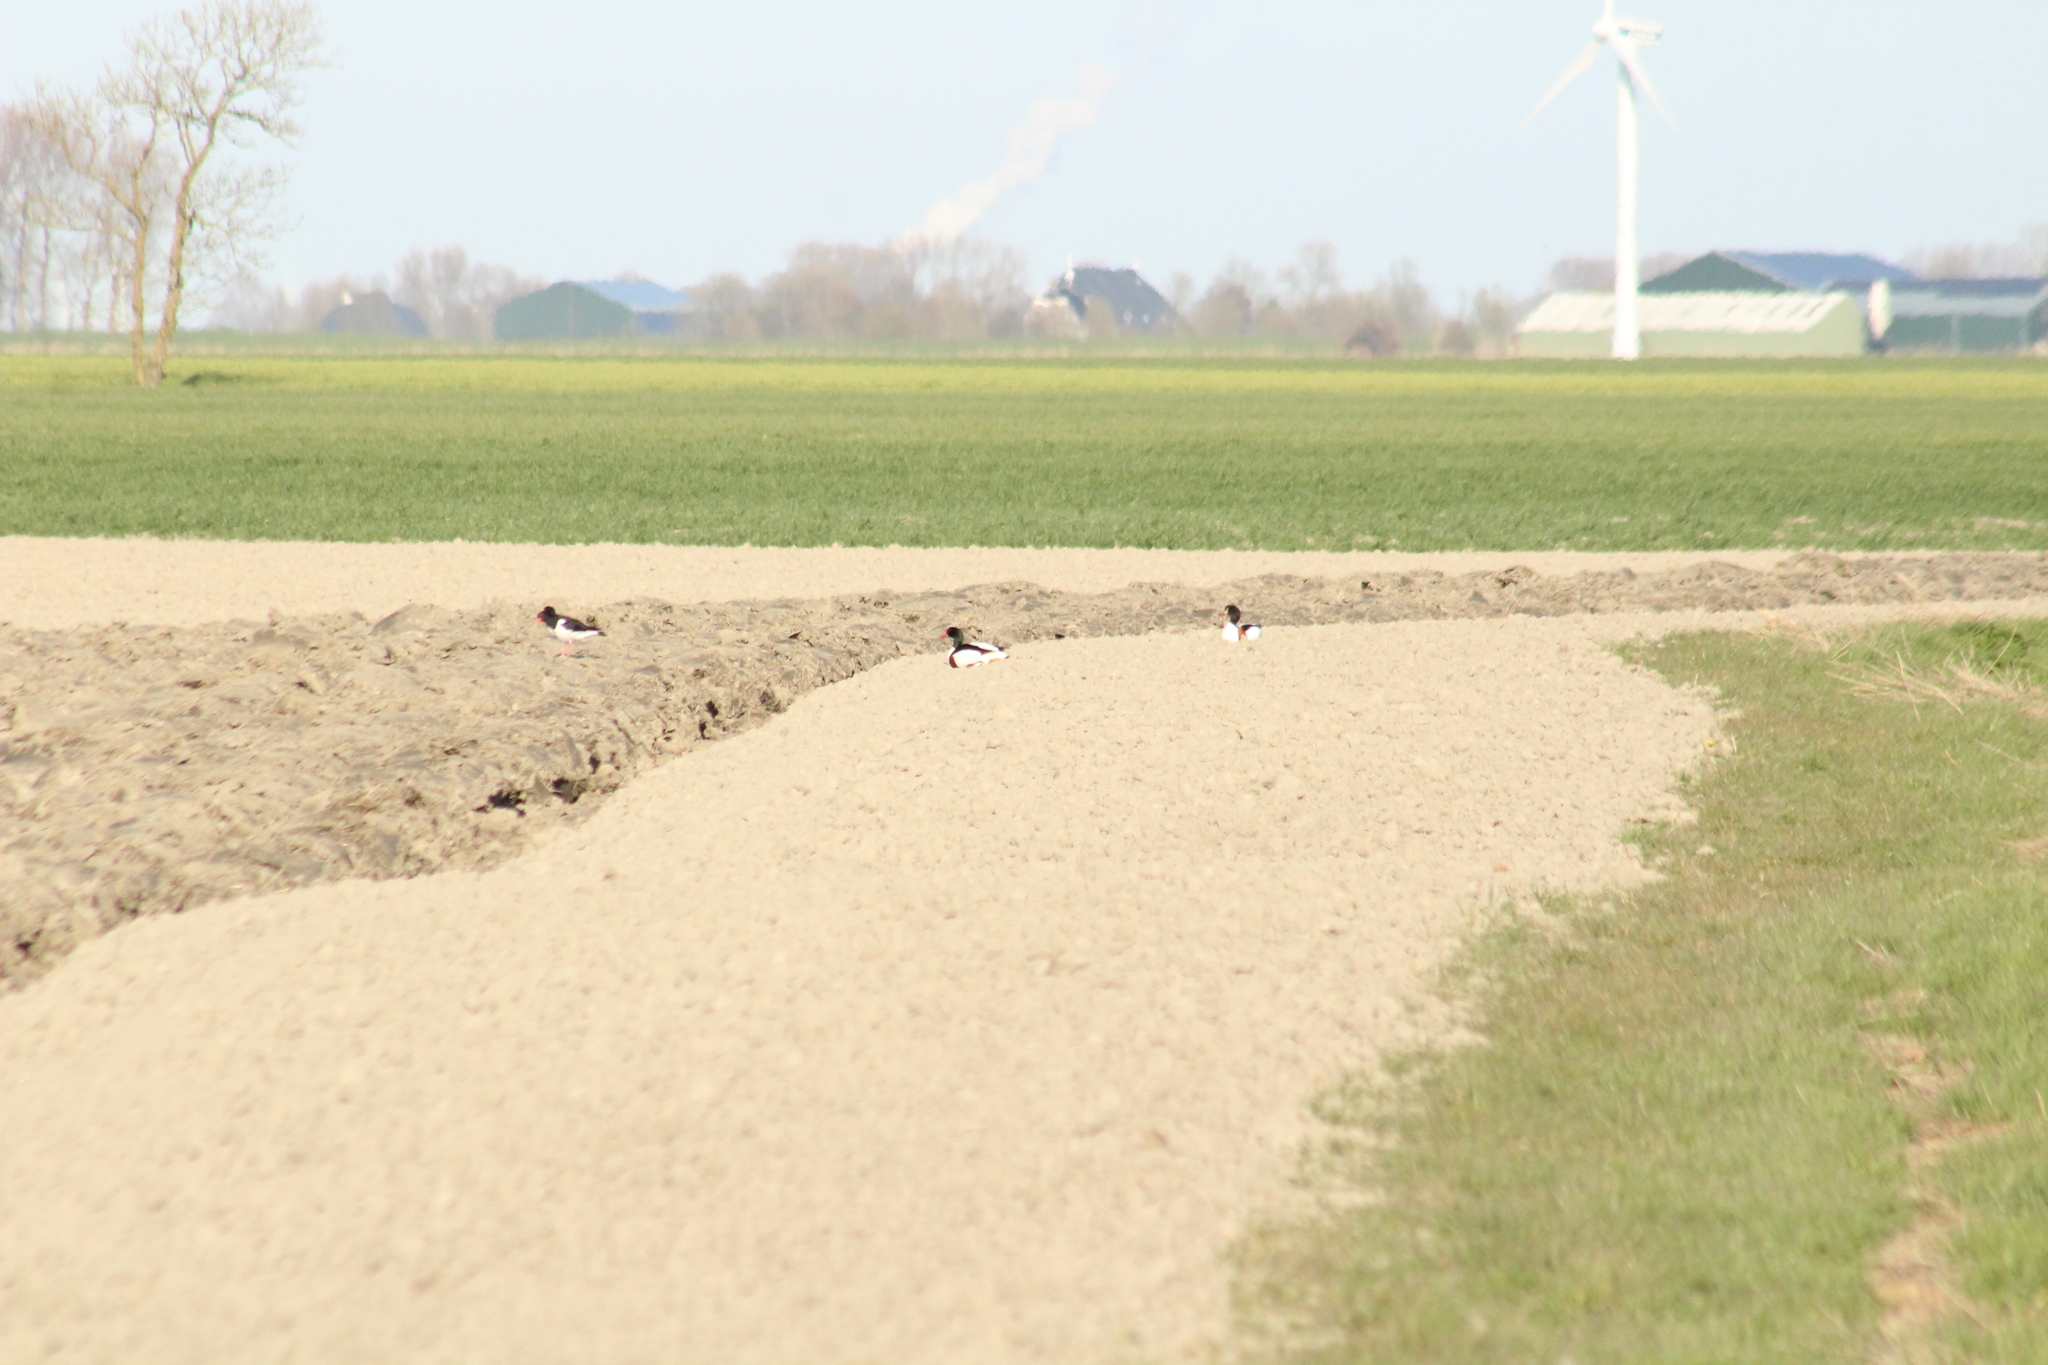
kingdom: Animalia
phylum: Chordata
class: Aves
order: Anseriformes
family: Anatidae
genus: Tadorna
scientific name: Tadorna tadorna
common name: Common shelduck
